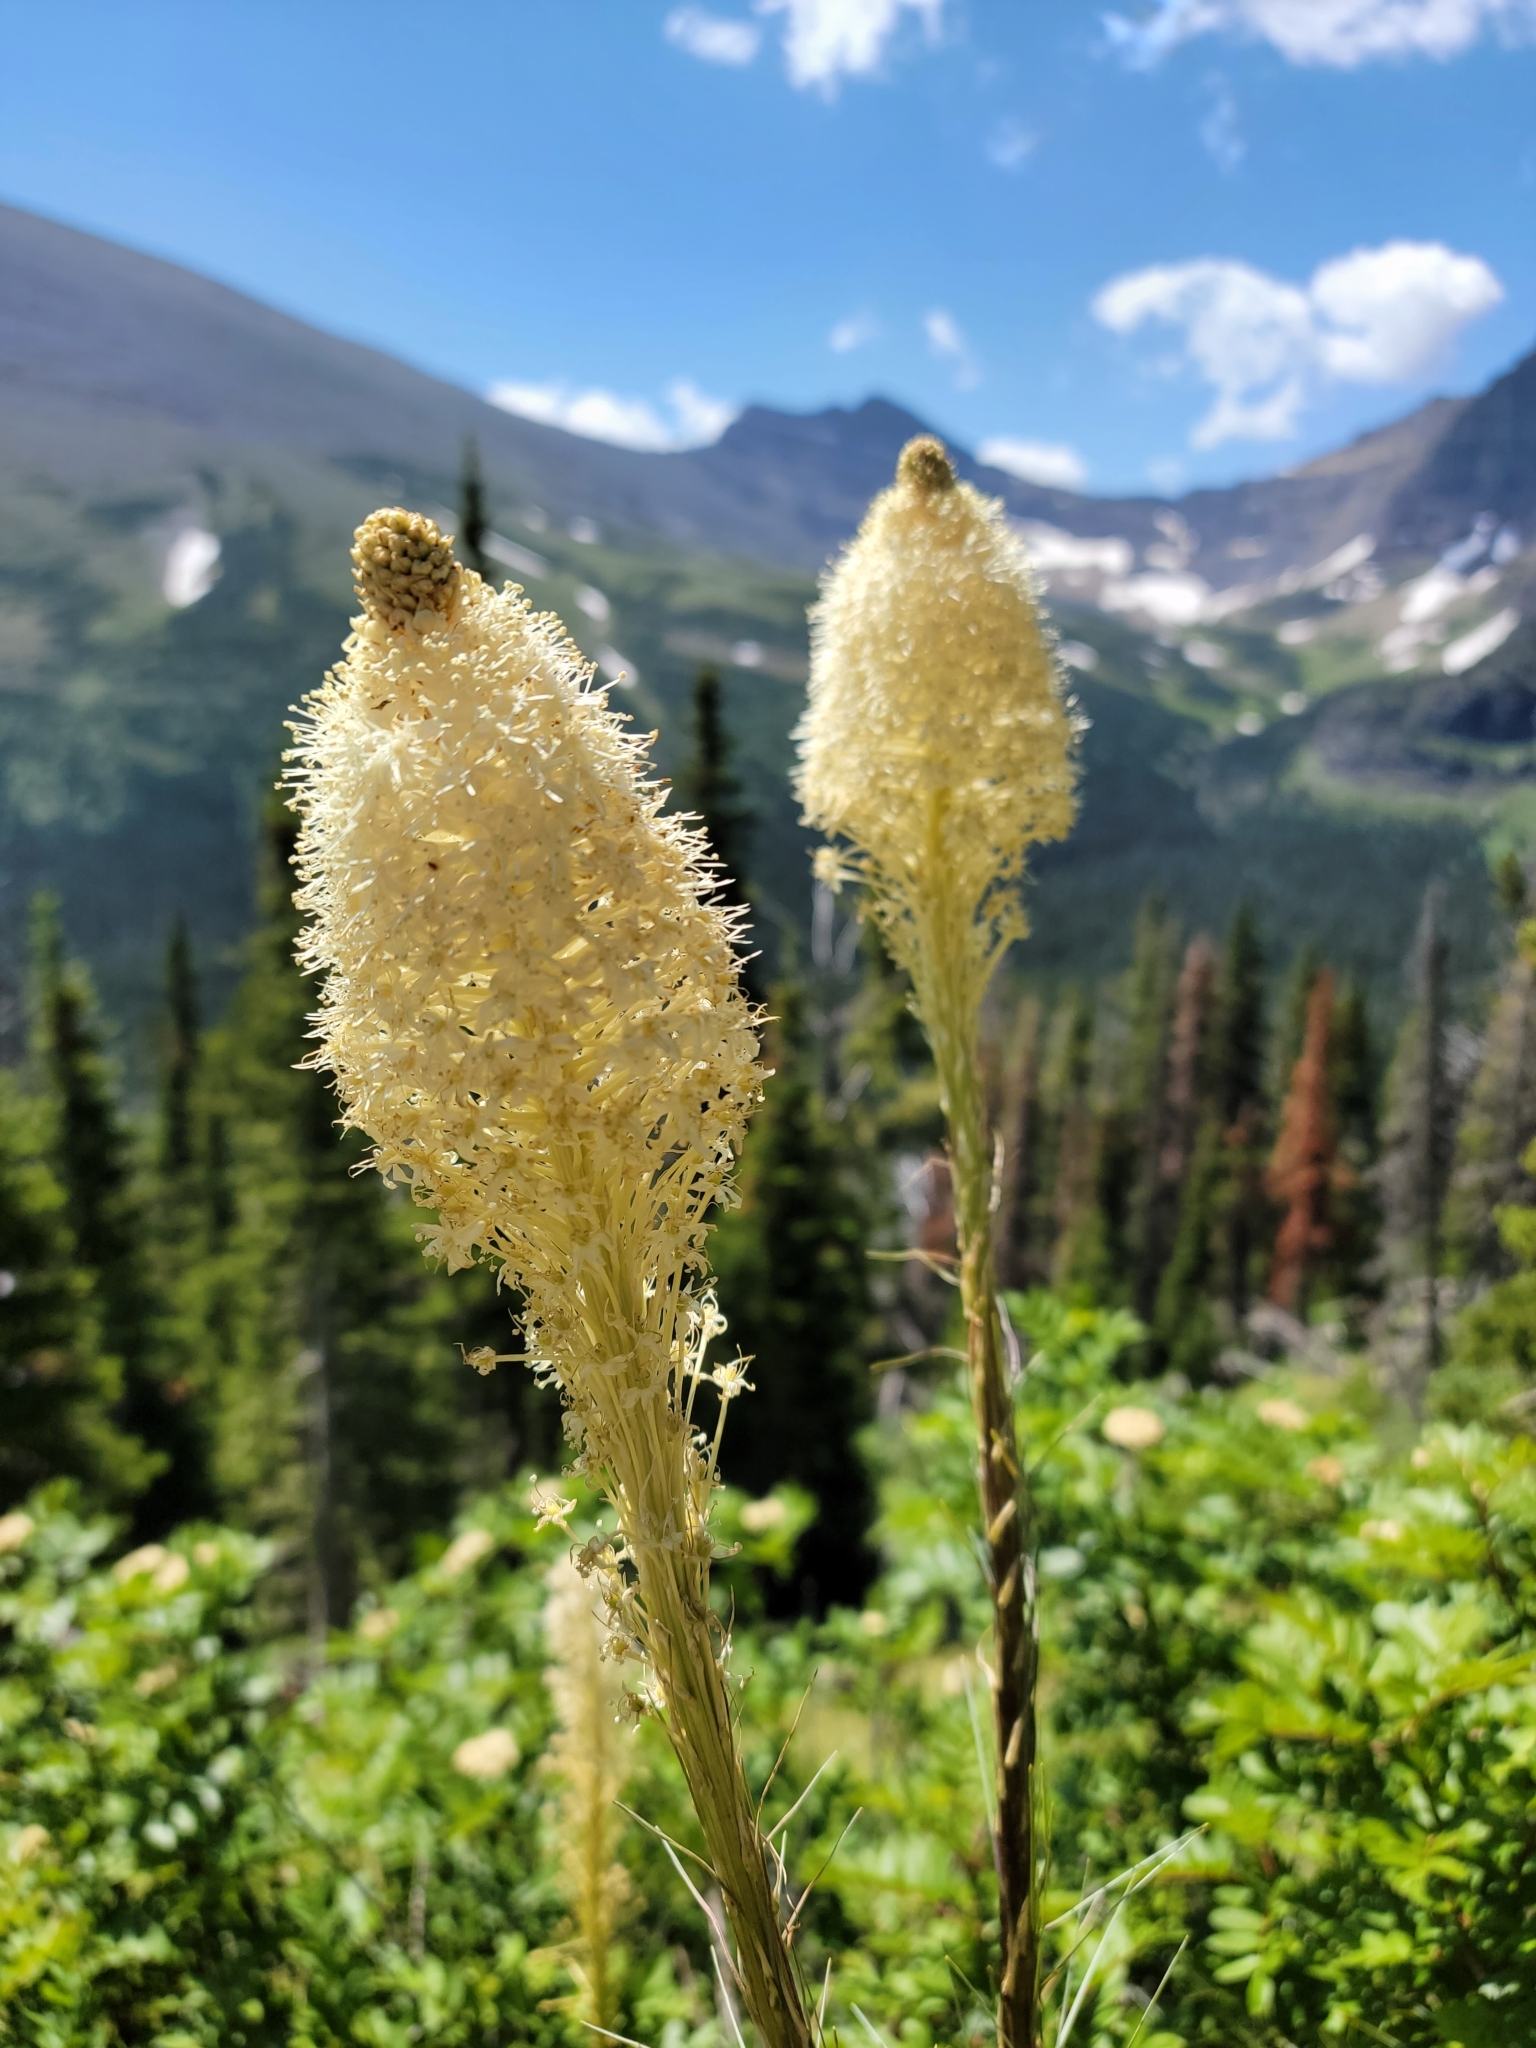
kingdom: Plantae
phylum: Tracheophyta
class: Liliopsida
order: Liliales
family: Melanthiaceae
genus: Xerophyllum
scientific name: Xerophyllum tenax
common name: Bear-grass
